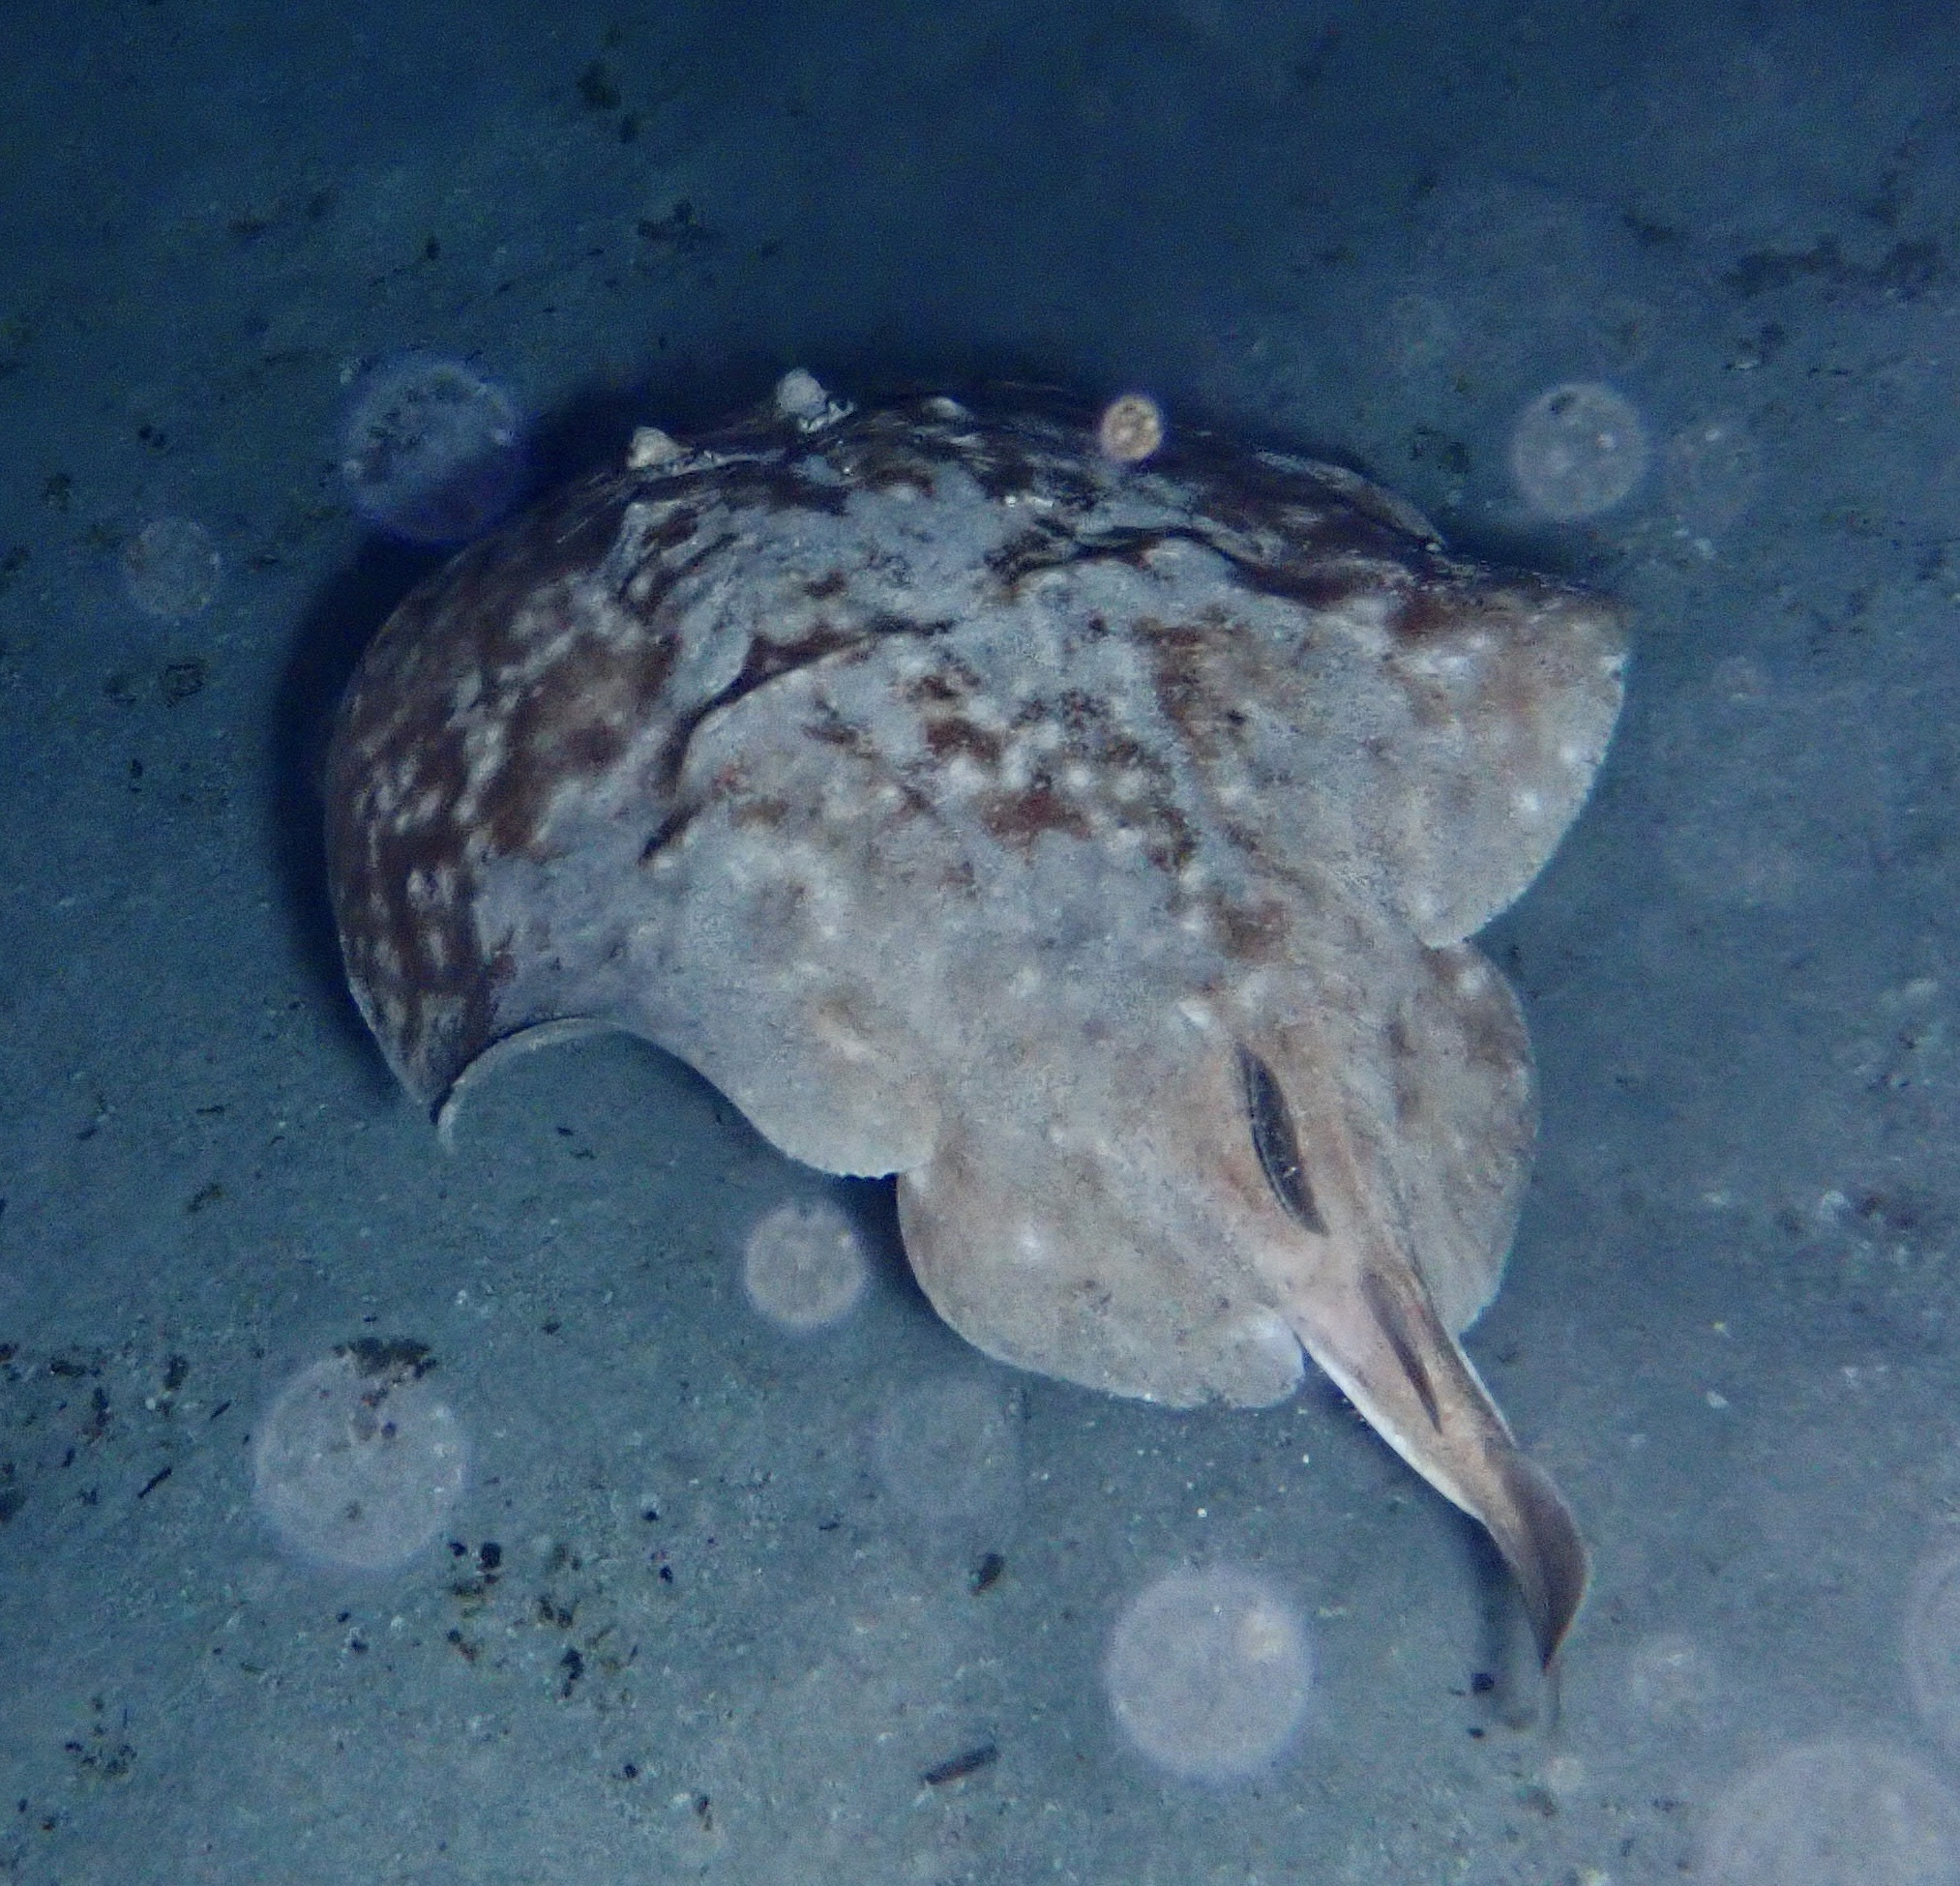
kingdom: Animalia
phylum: Chordata
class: Elasmobranchii
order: Torpediniformes
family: Torpedinidae
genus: Torpedo
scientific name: Torpedo panthera
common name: Leopard torpedo
